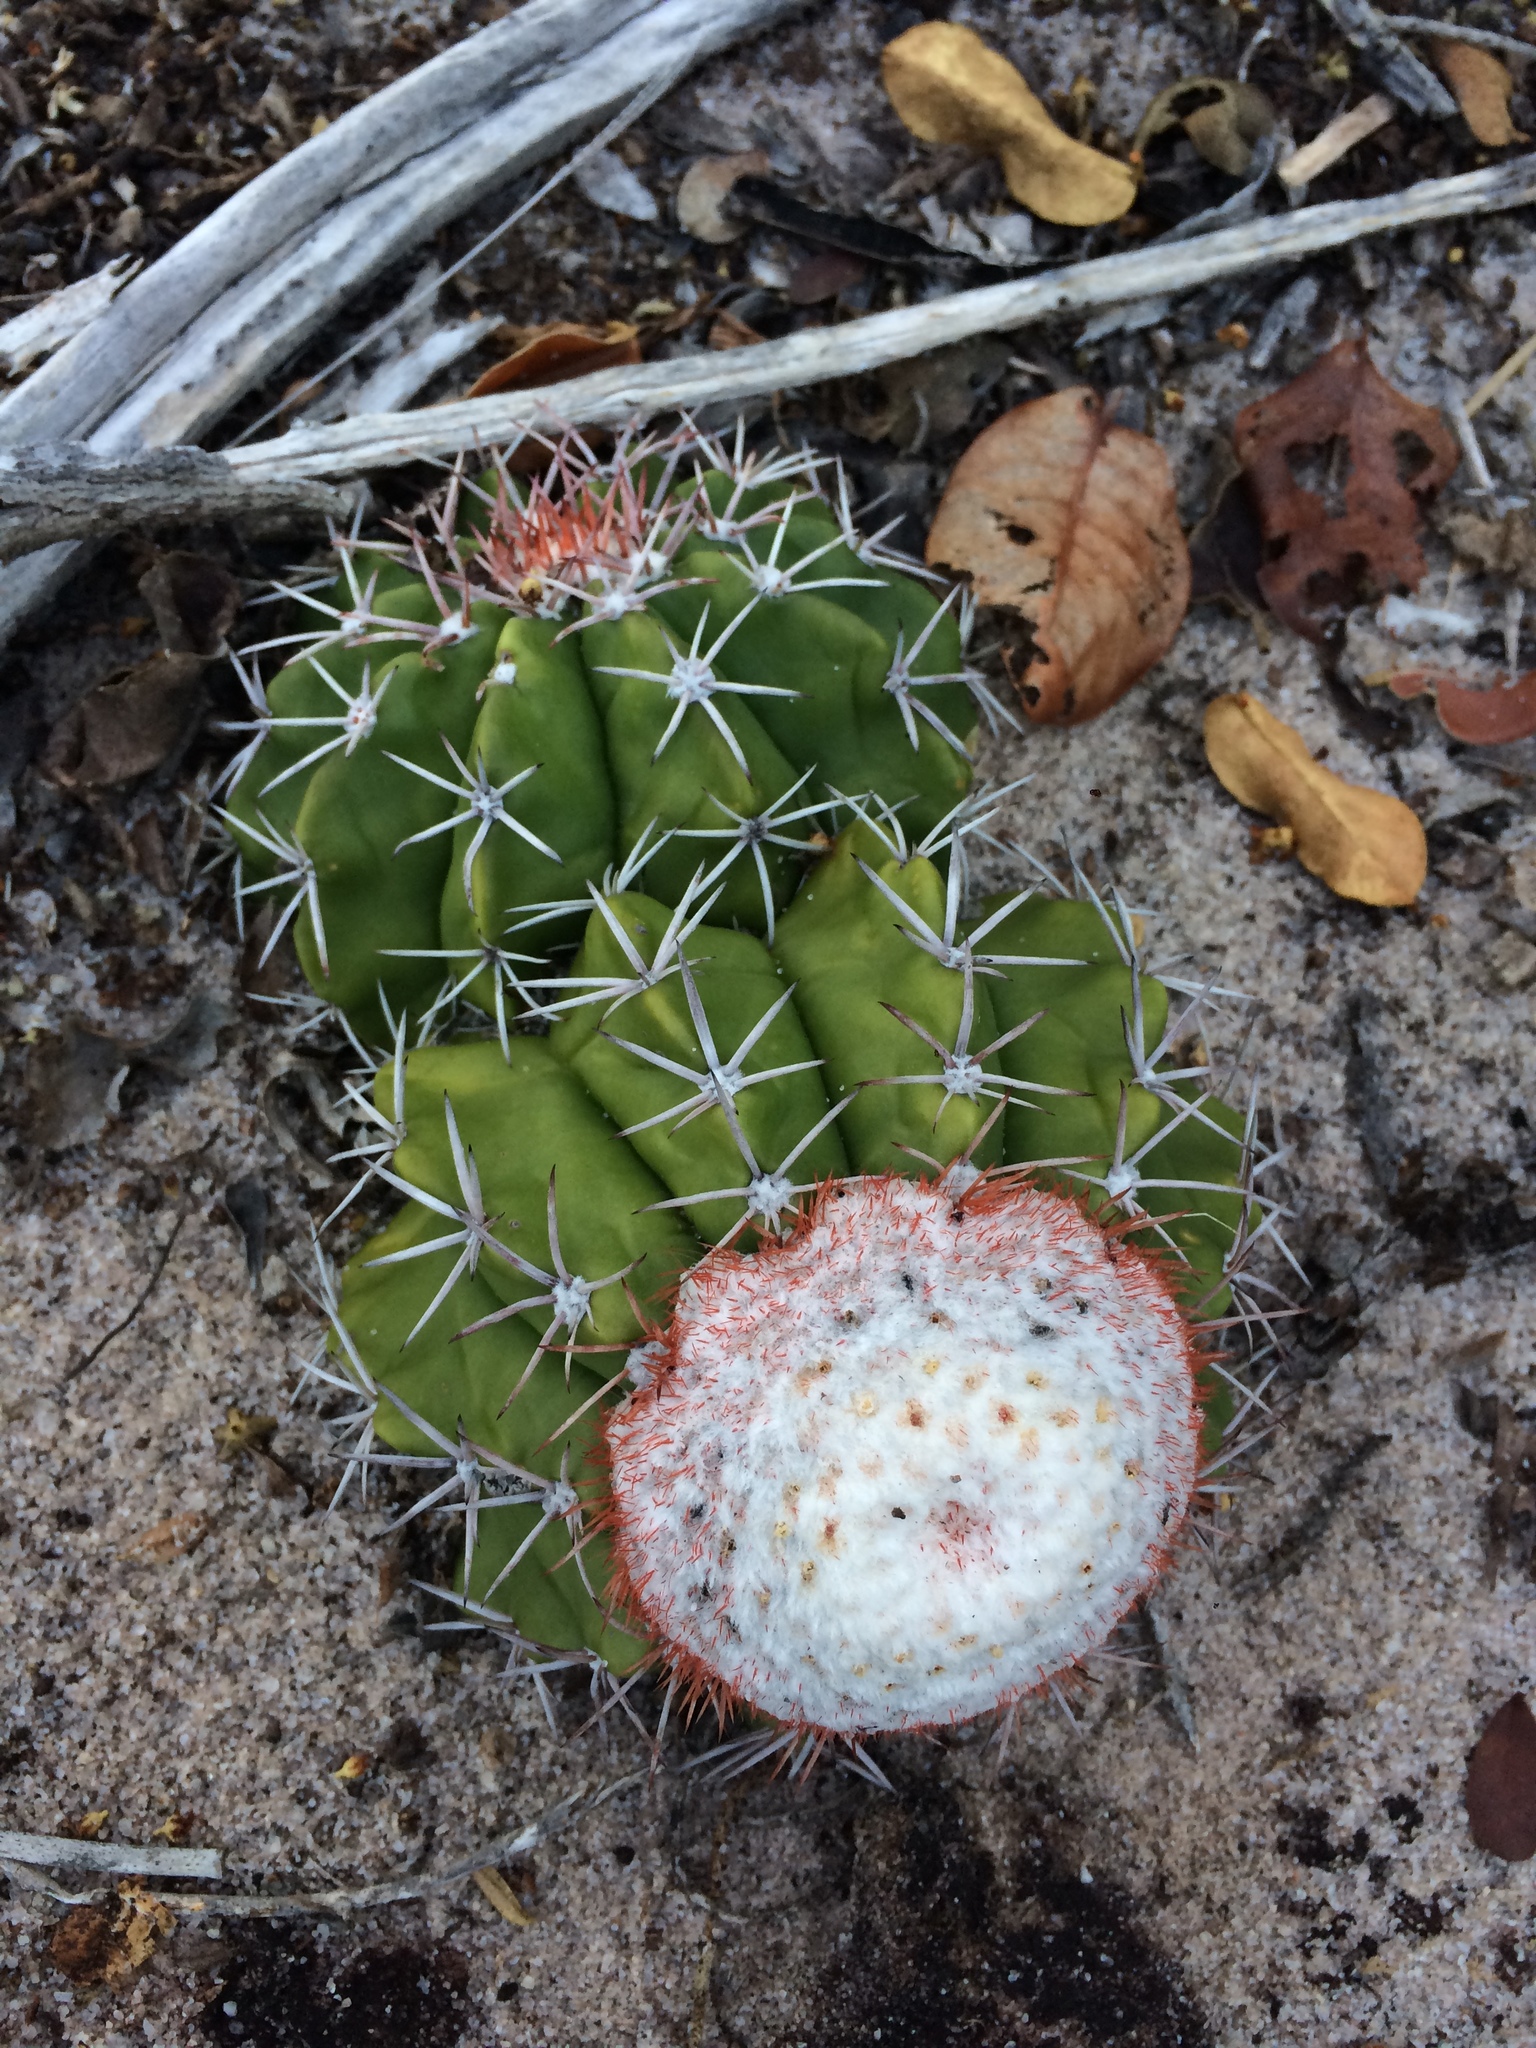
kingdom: Plantae
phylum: Tracheophyta
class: Magnoliopsida
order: Caryophyllales
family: Cactaceae
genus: Melocactus
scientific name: Melocactus violaceus
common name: Turk's-cap cactus
